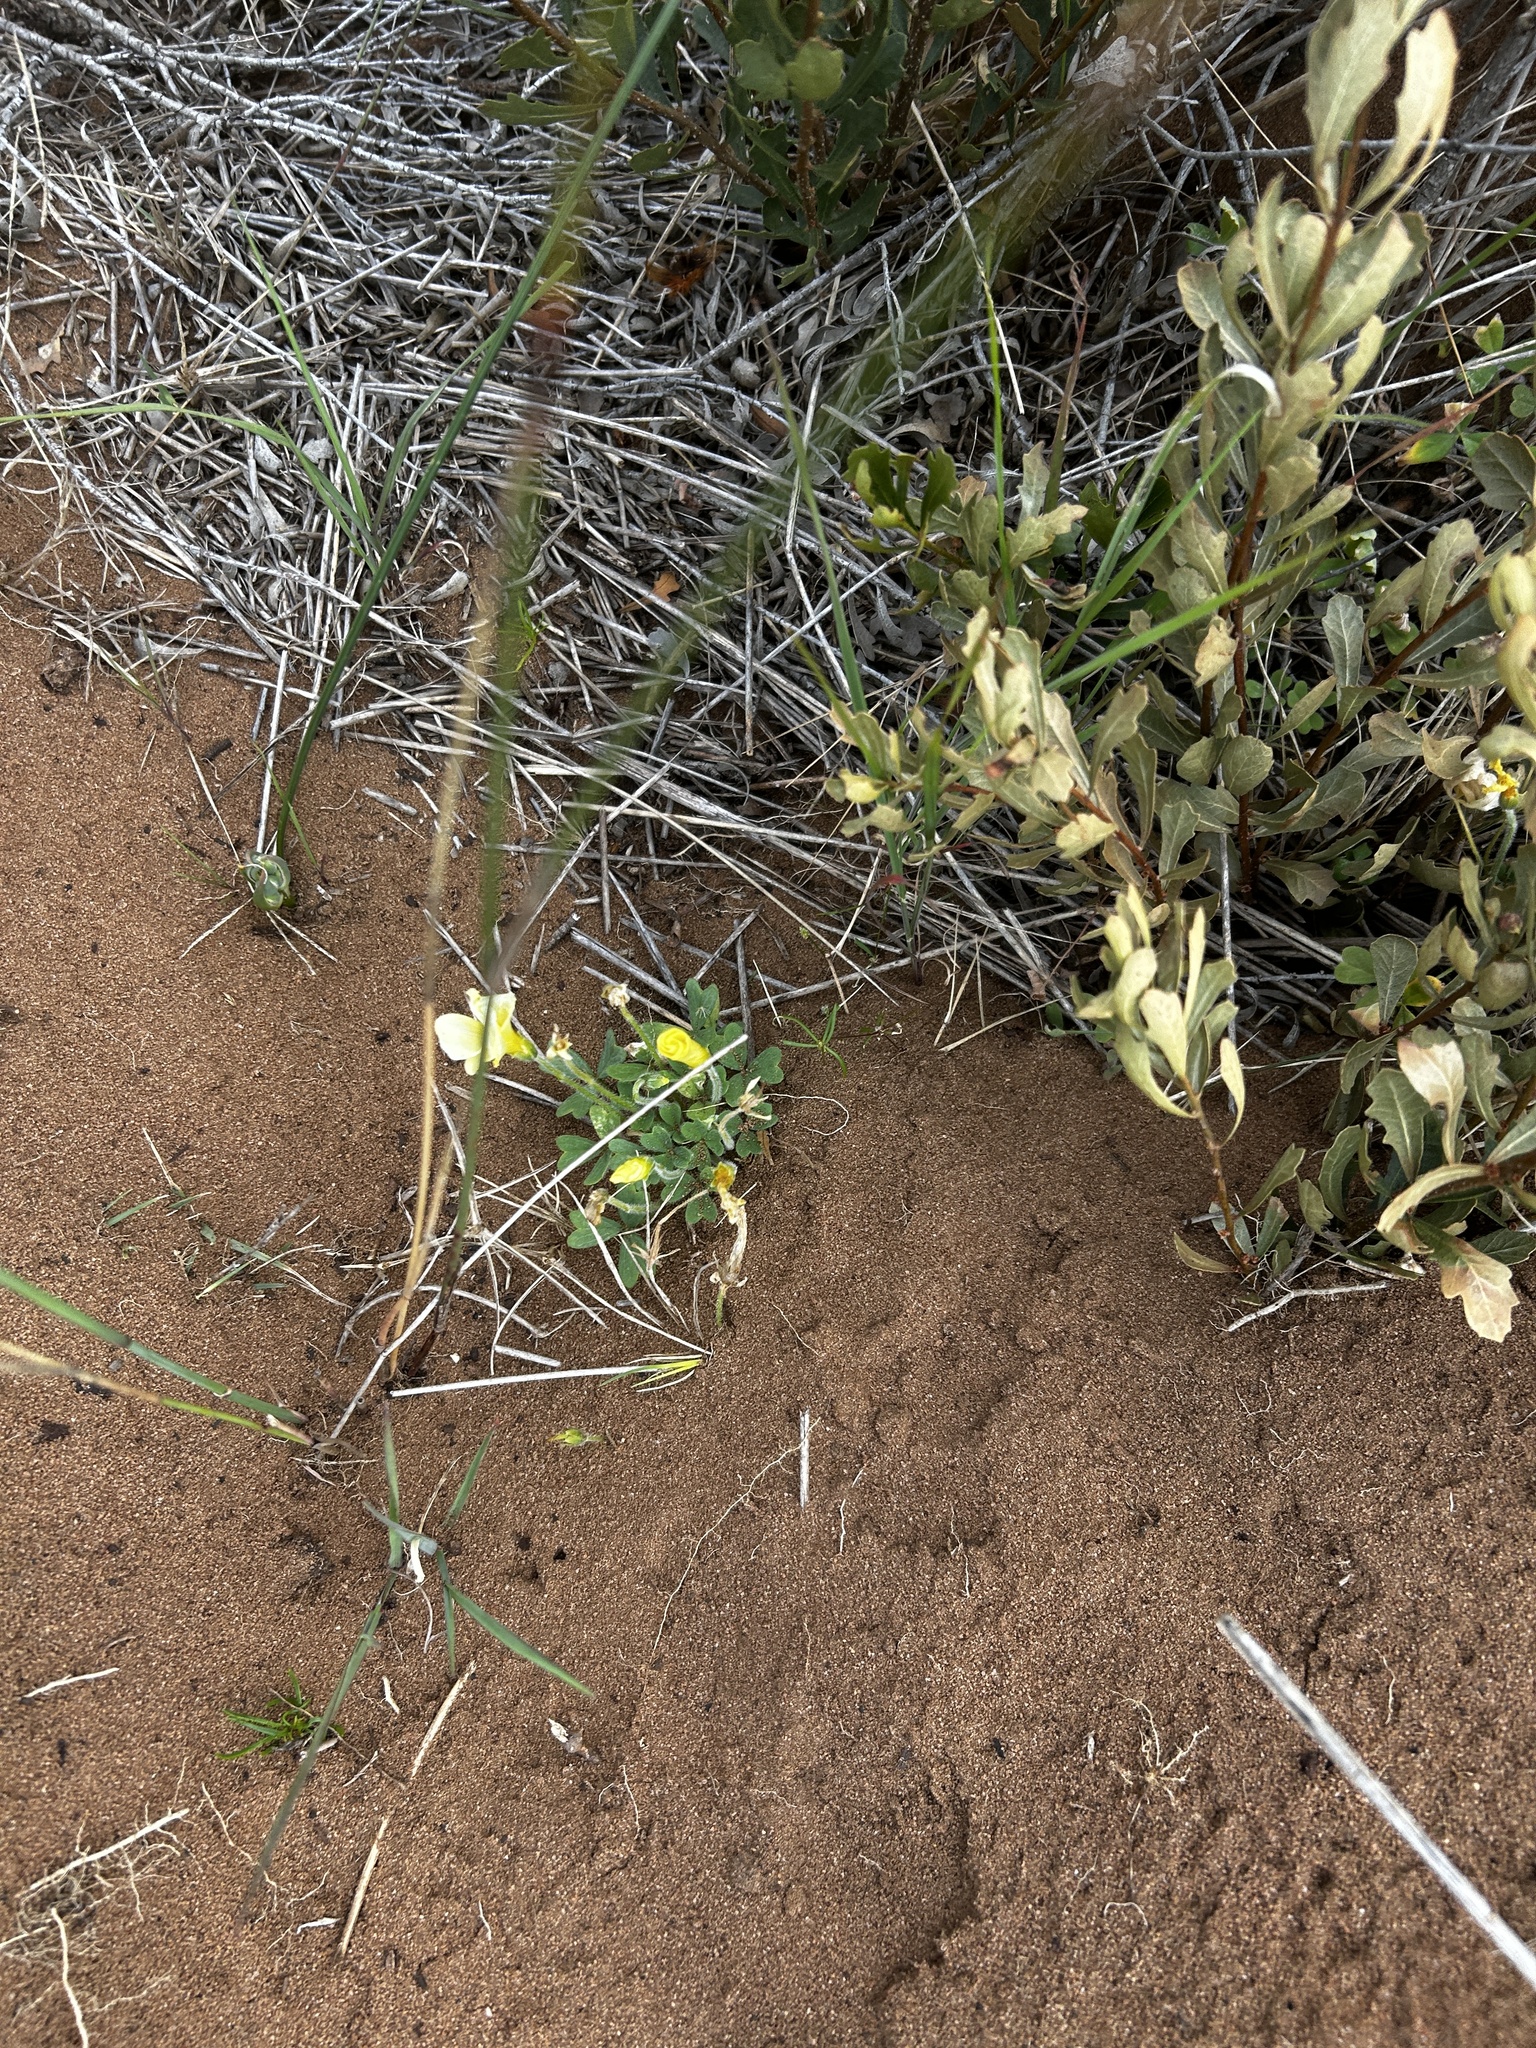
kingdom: Plantae
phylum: Tracheophyta
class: Magnoliopsida
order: Oxalidales
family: Oxalidaceae
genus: Oxalis
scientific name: Oxalis obtusa
